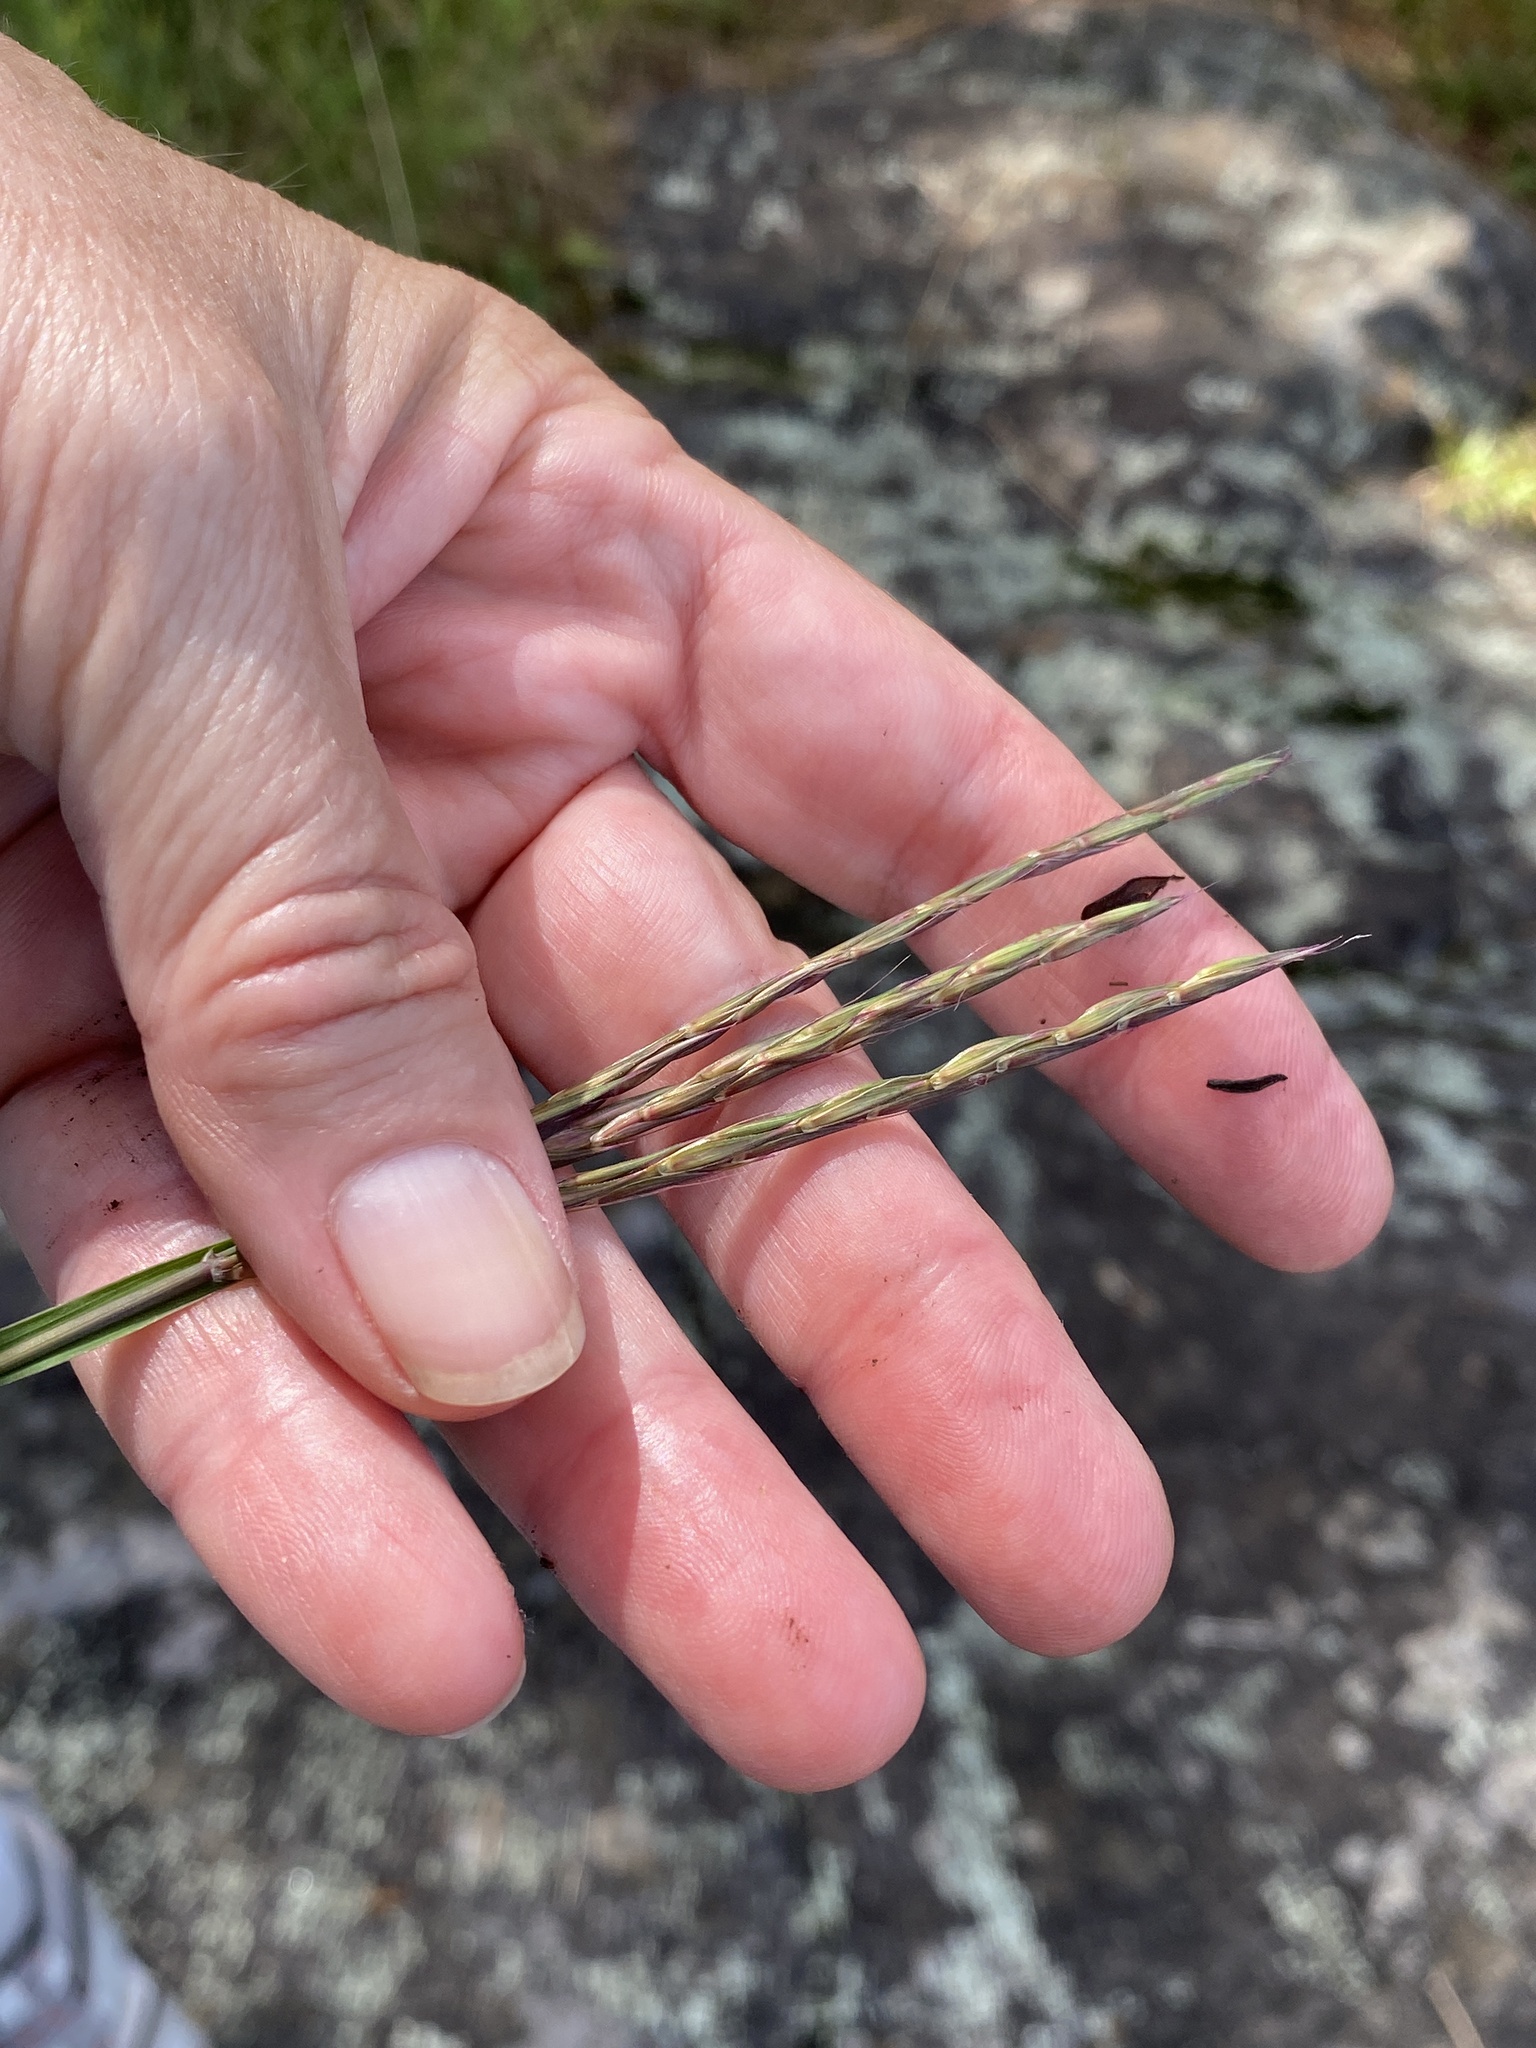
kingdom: Plantae
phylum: Tracheophyta
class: Liliopsida
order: Poales
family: Poaceae
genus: Andropogon
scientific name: Andropogon gerardi
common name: Big bluestem
